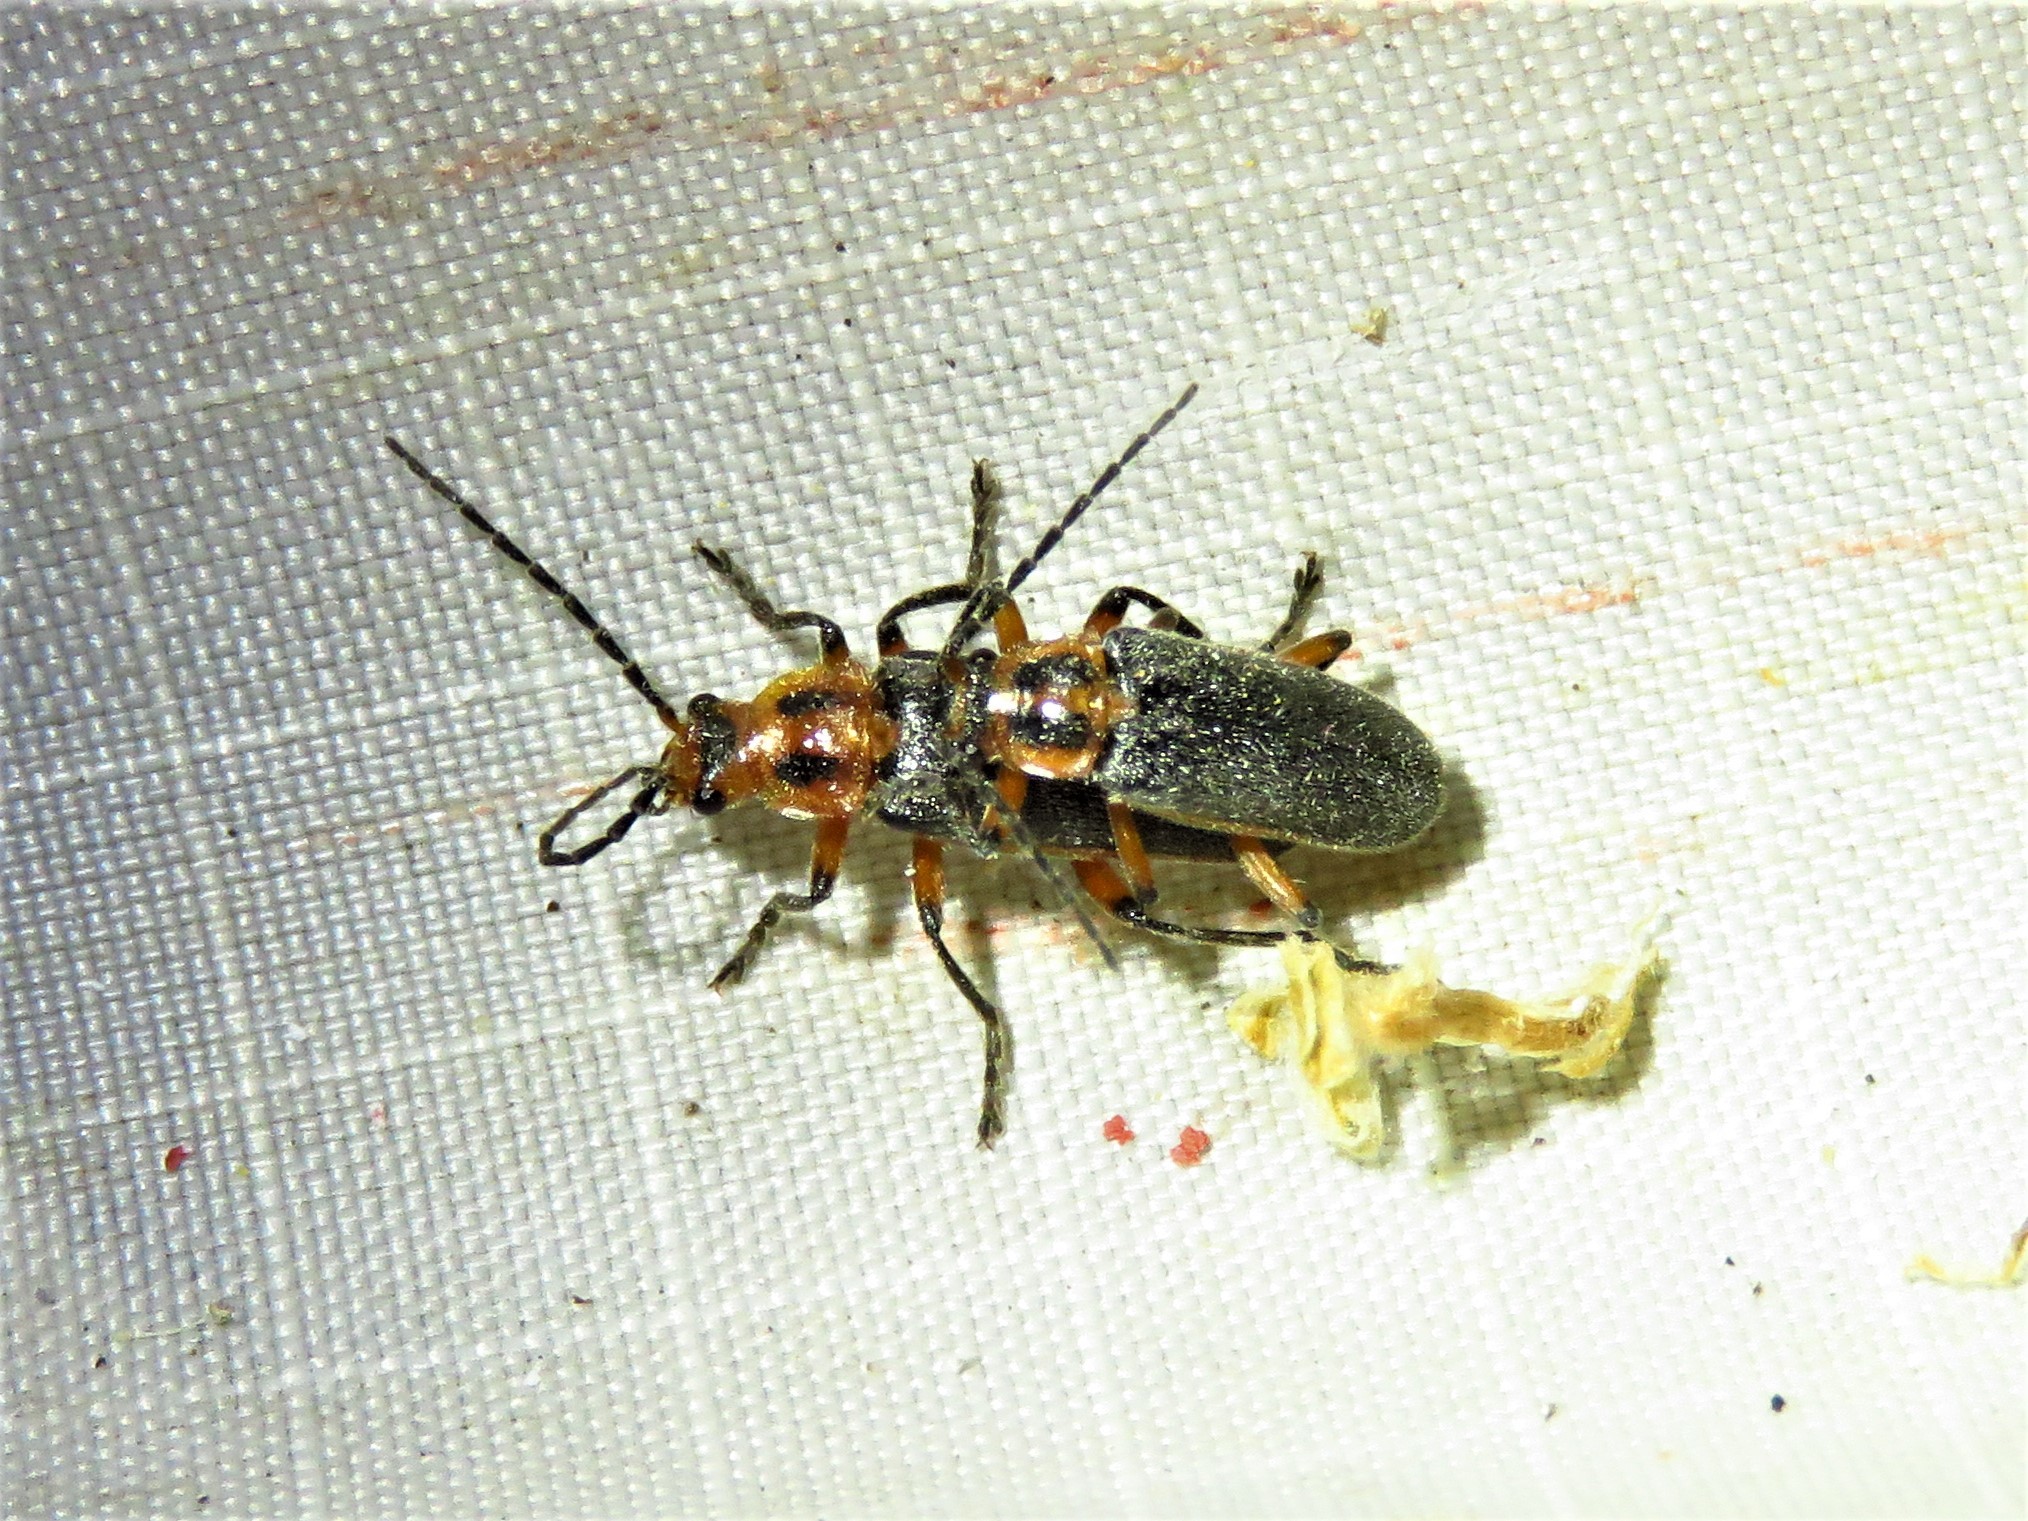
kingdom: Animalia
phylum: Arthropoda
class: Insecta
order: Coleoptera
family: Cantharidae
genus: Atalantycha
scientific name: Atalantycha bilineata
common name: Two-lined leatherwing
